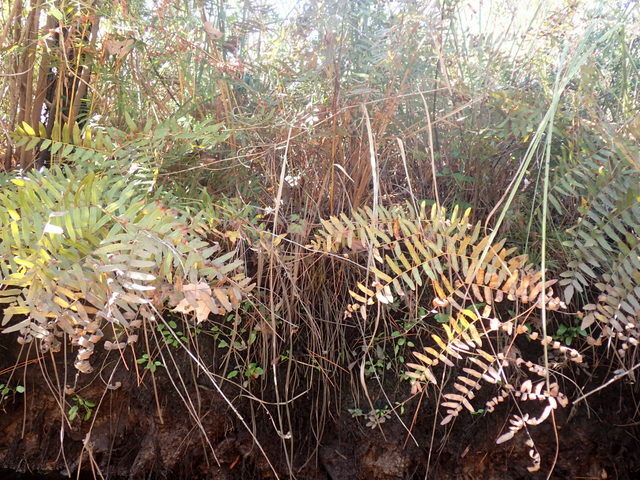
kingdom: Plantae
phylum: Tracheophyta
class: Polypodiopsida
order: Osmundales
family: Osmundaceae
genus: Osmunda
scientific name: Osmunda spectabilis
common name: American royal fern
